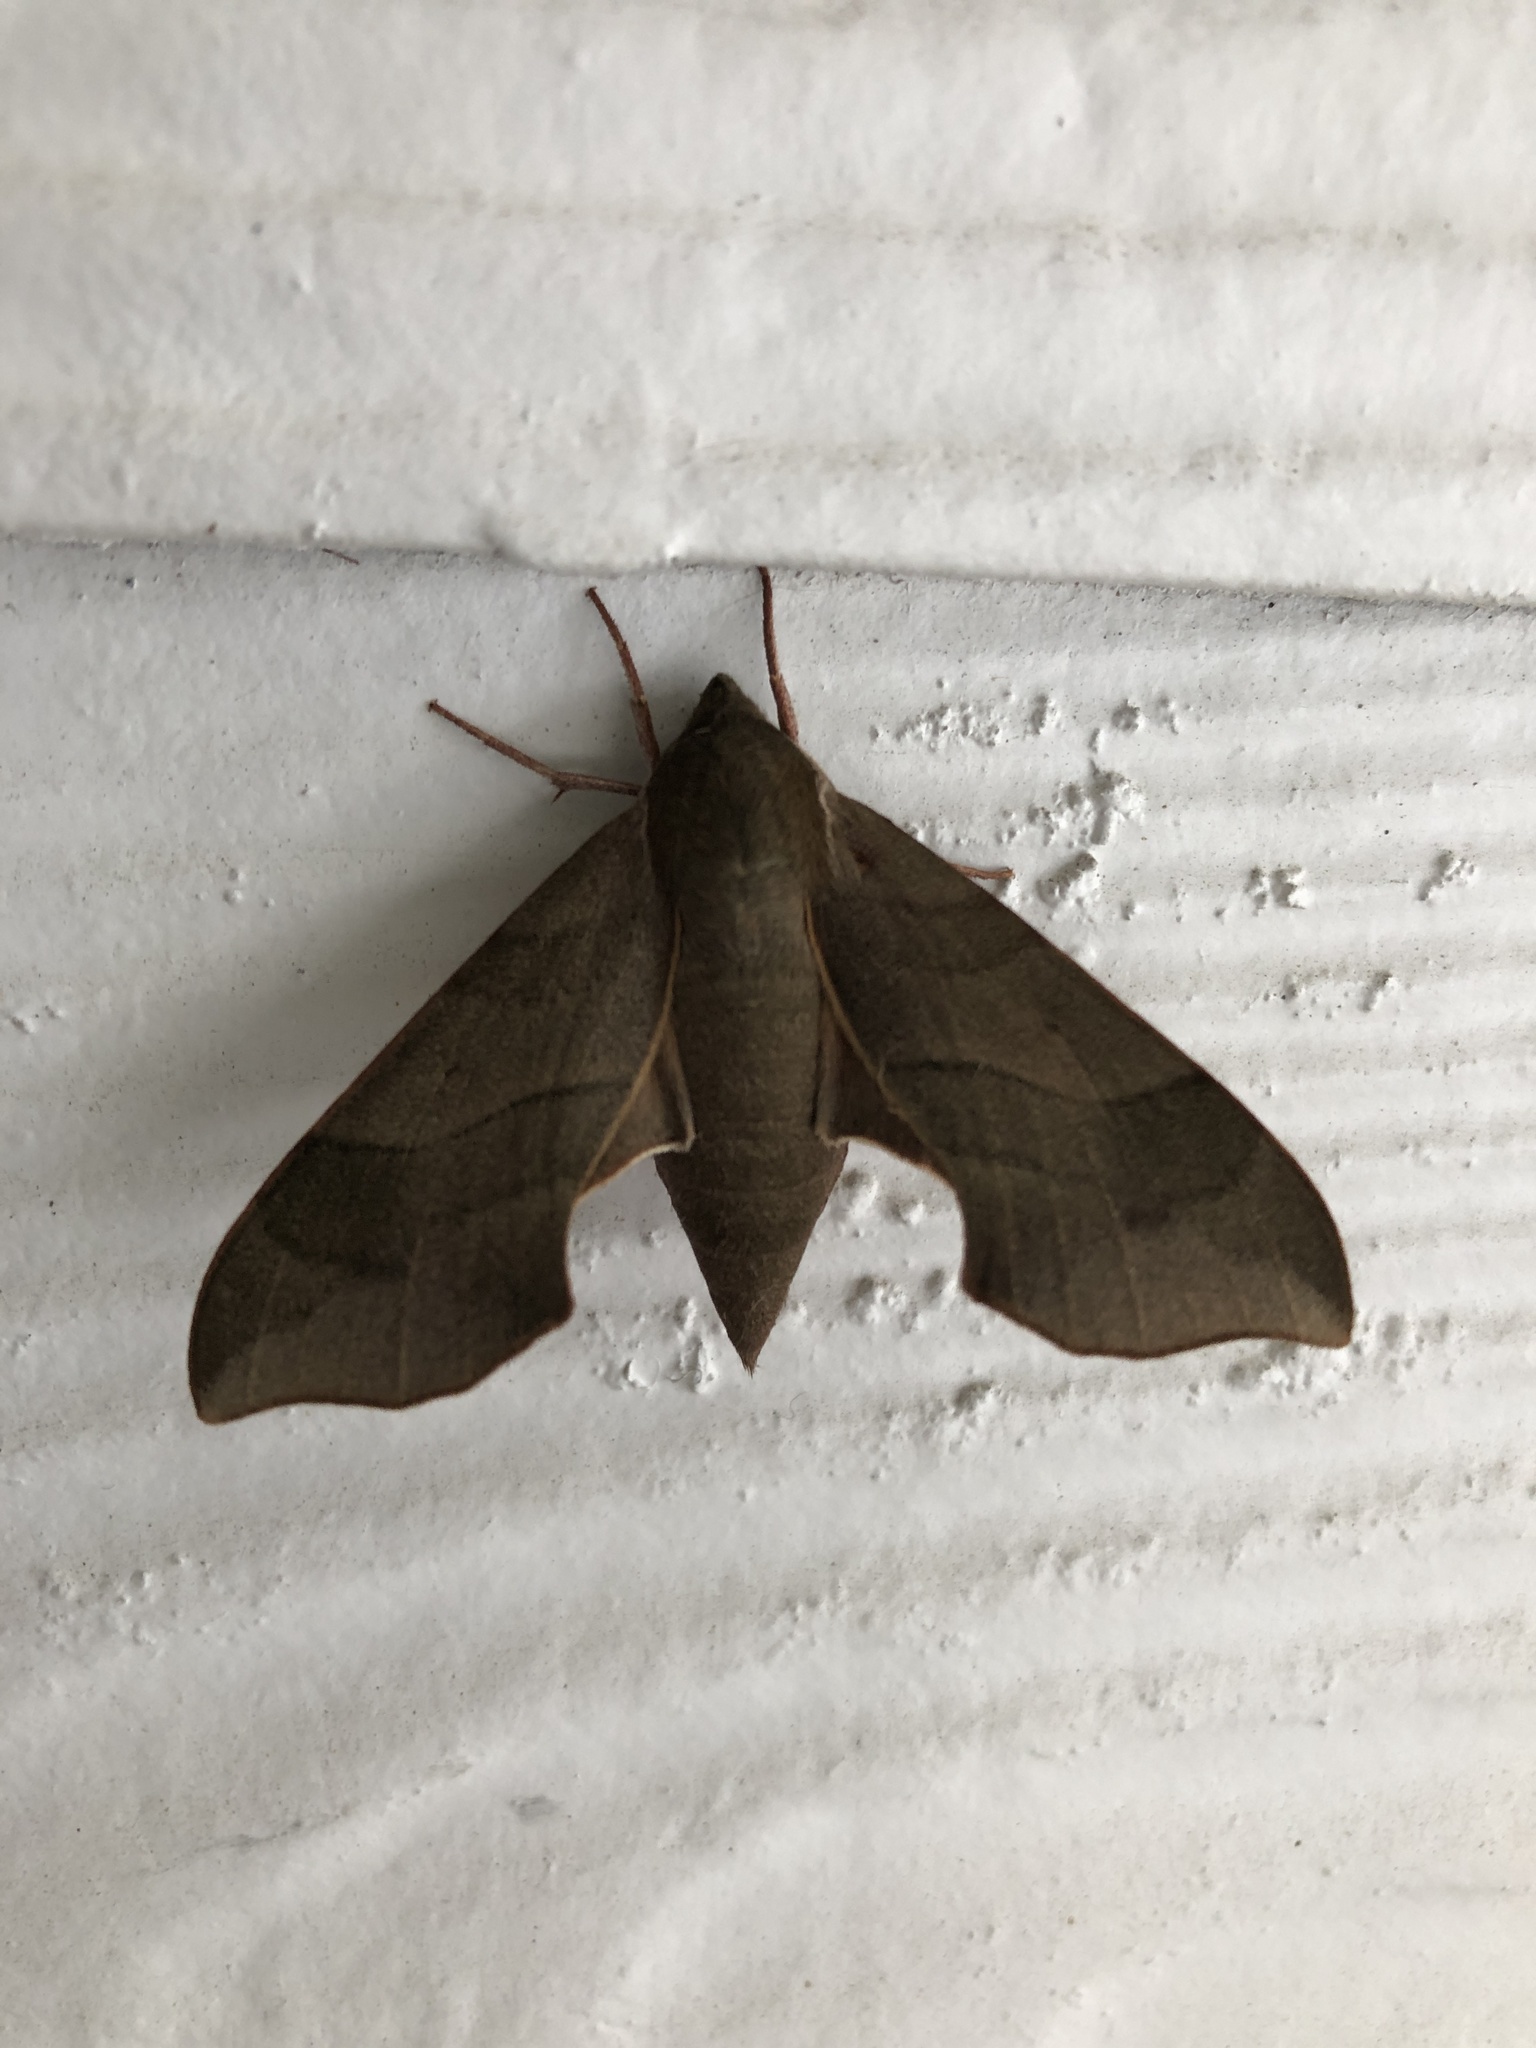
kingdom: Animalia
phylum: Arthropoda
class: Insecta
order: Lepidoptera
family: Sphingidae
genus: Darapsa
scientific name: Darapsa myron
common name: Hog sphinx
